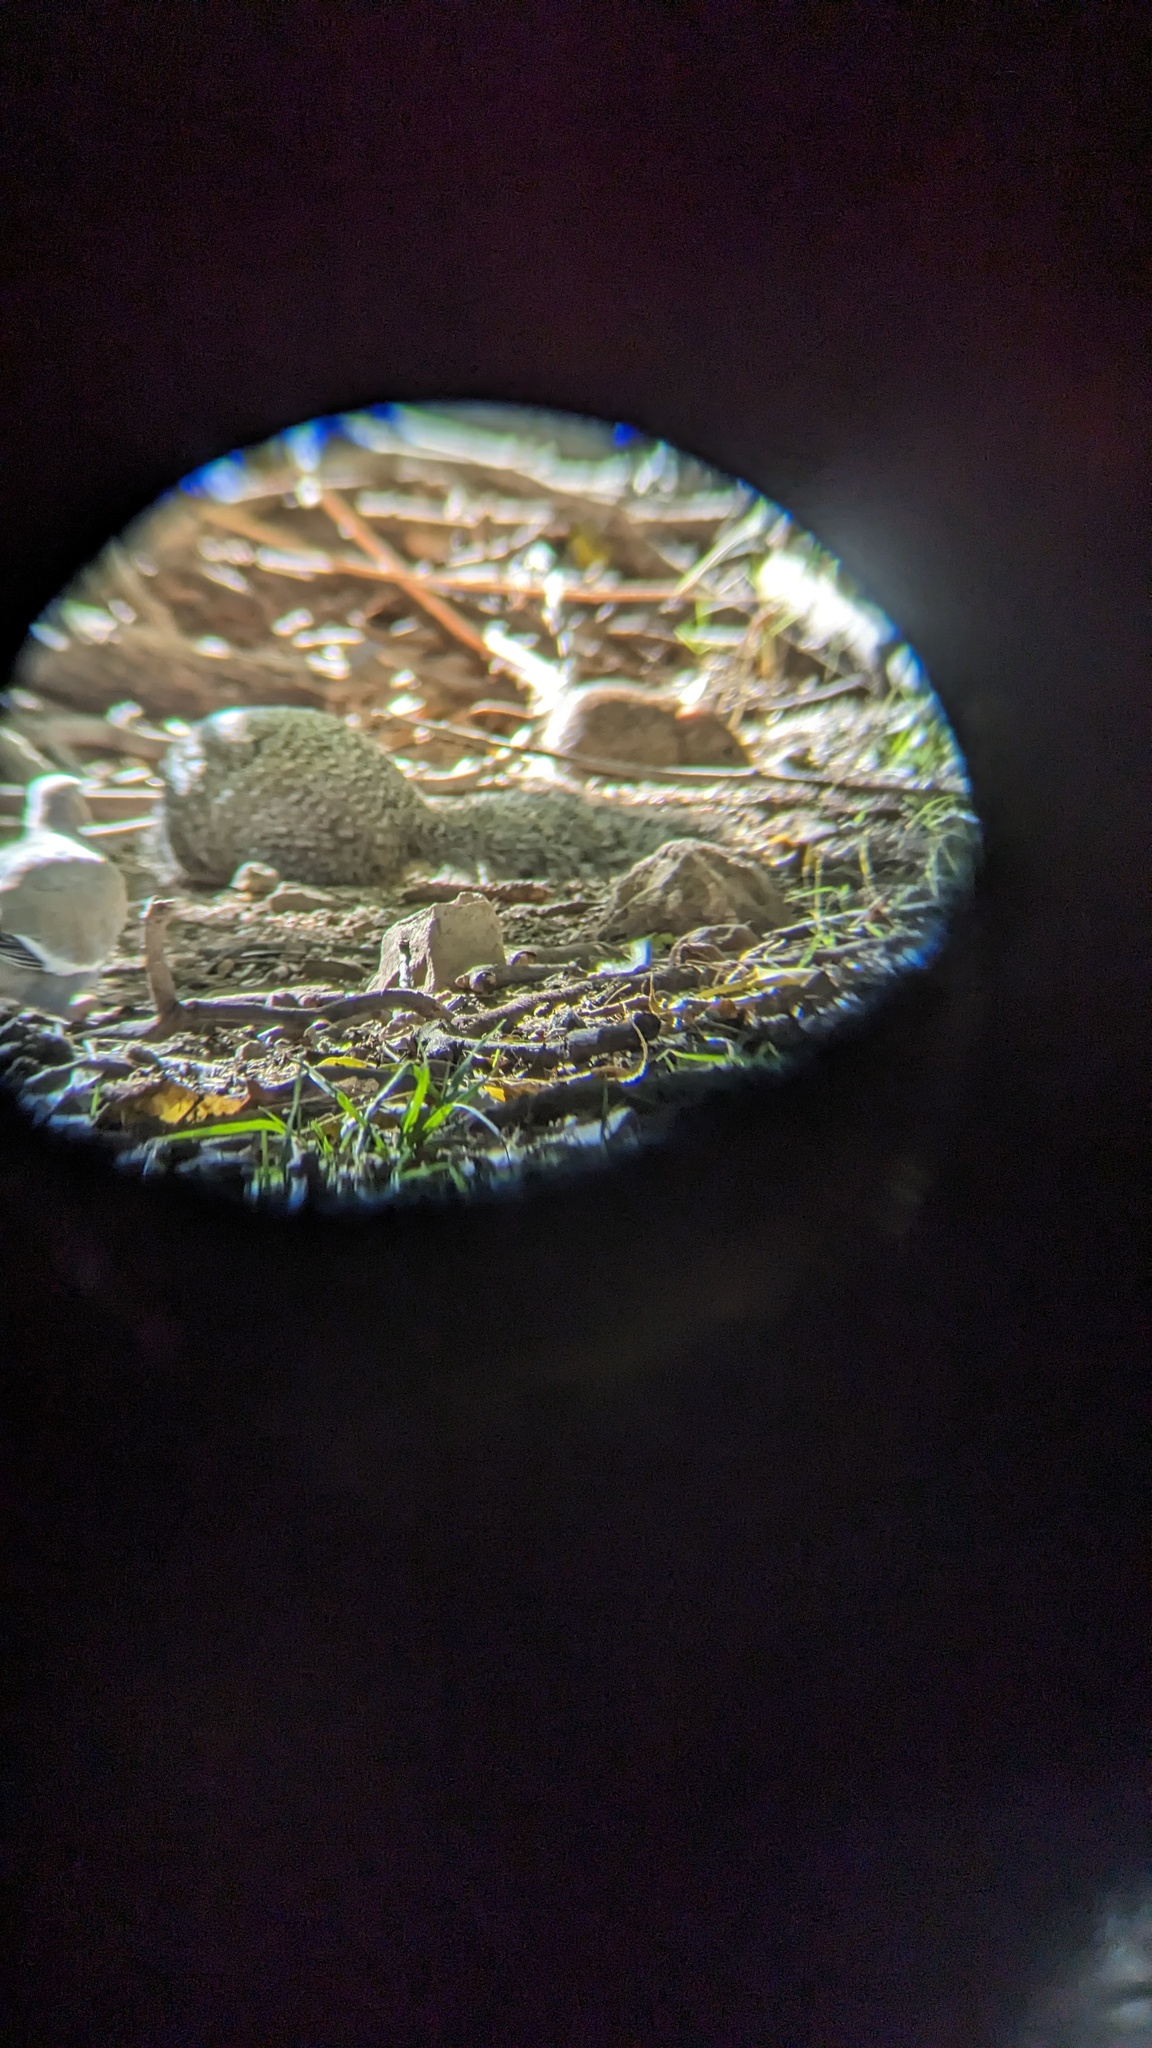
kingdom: Animalia
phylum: Chordata
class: Mammalia
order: Rodentia
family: Sciuridae
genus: Otospermophilus
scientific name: Otospermophilus variegatus
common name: Rock squirrel
